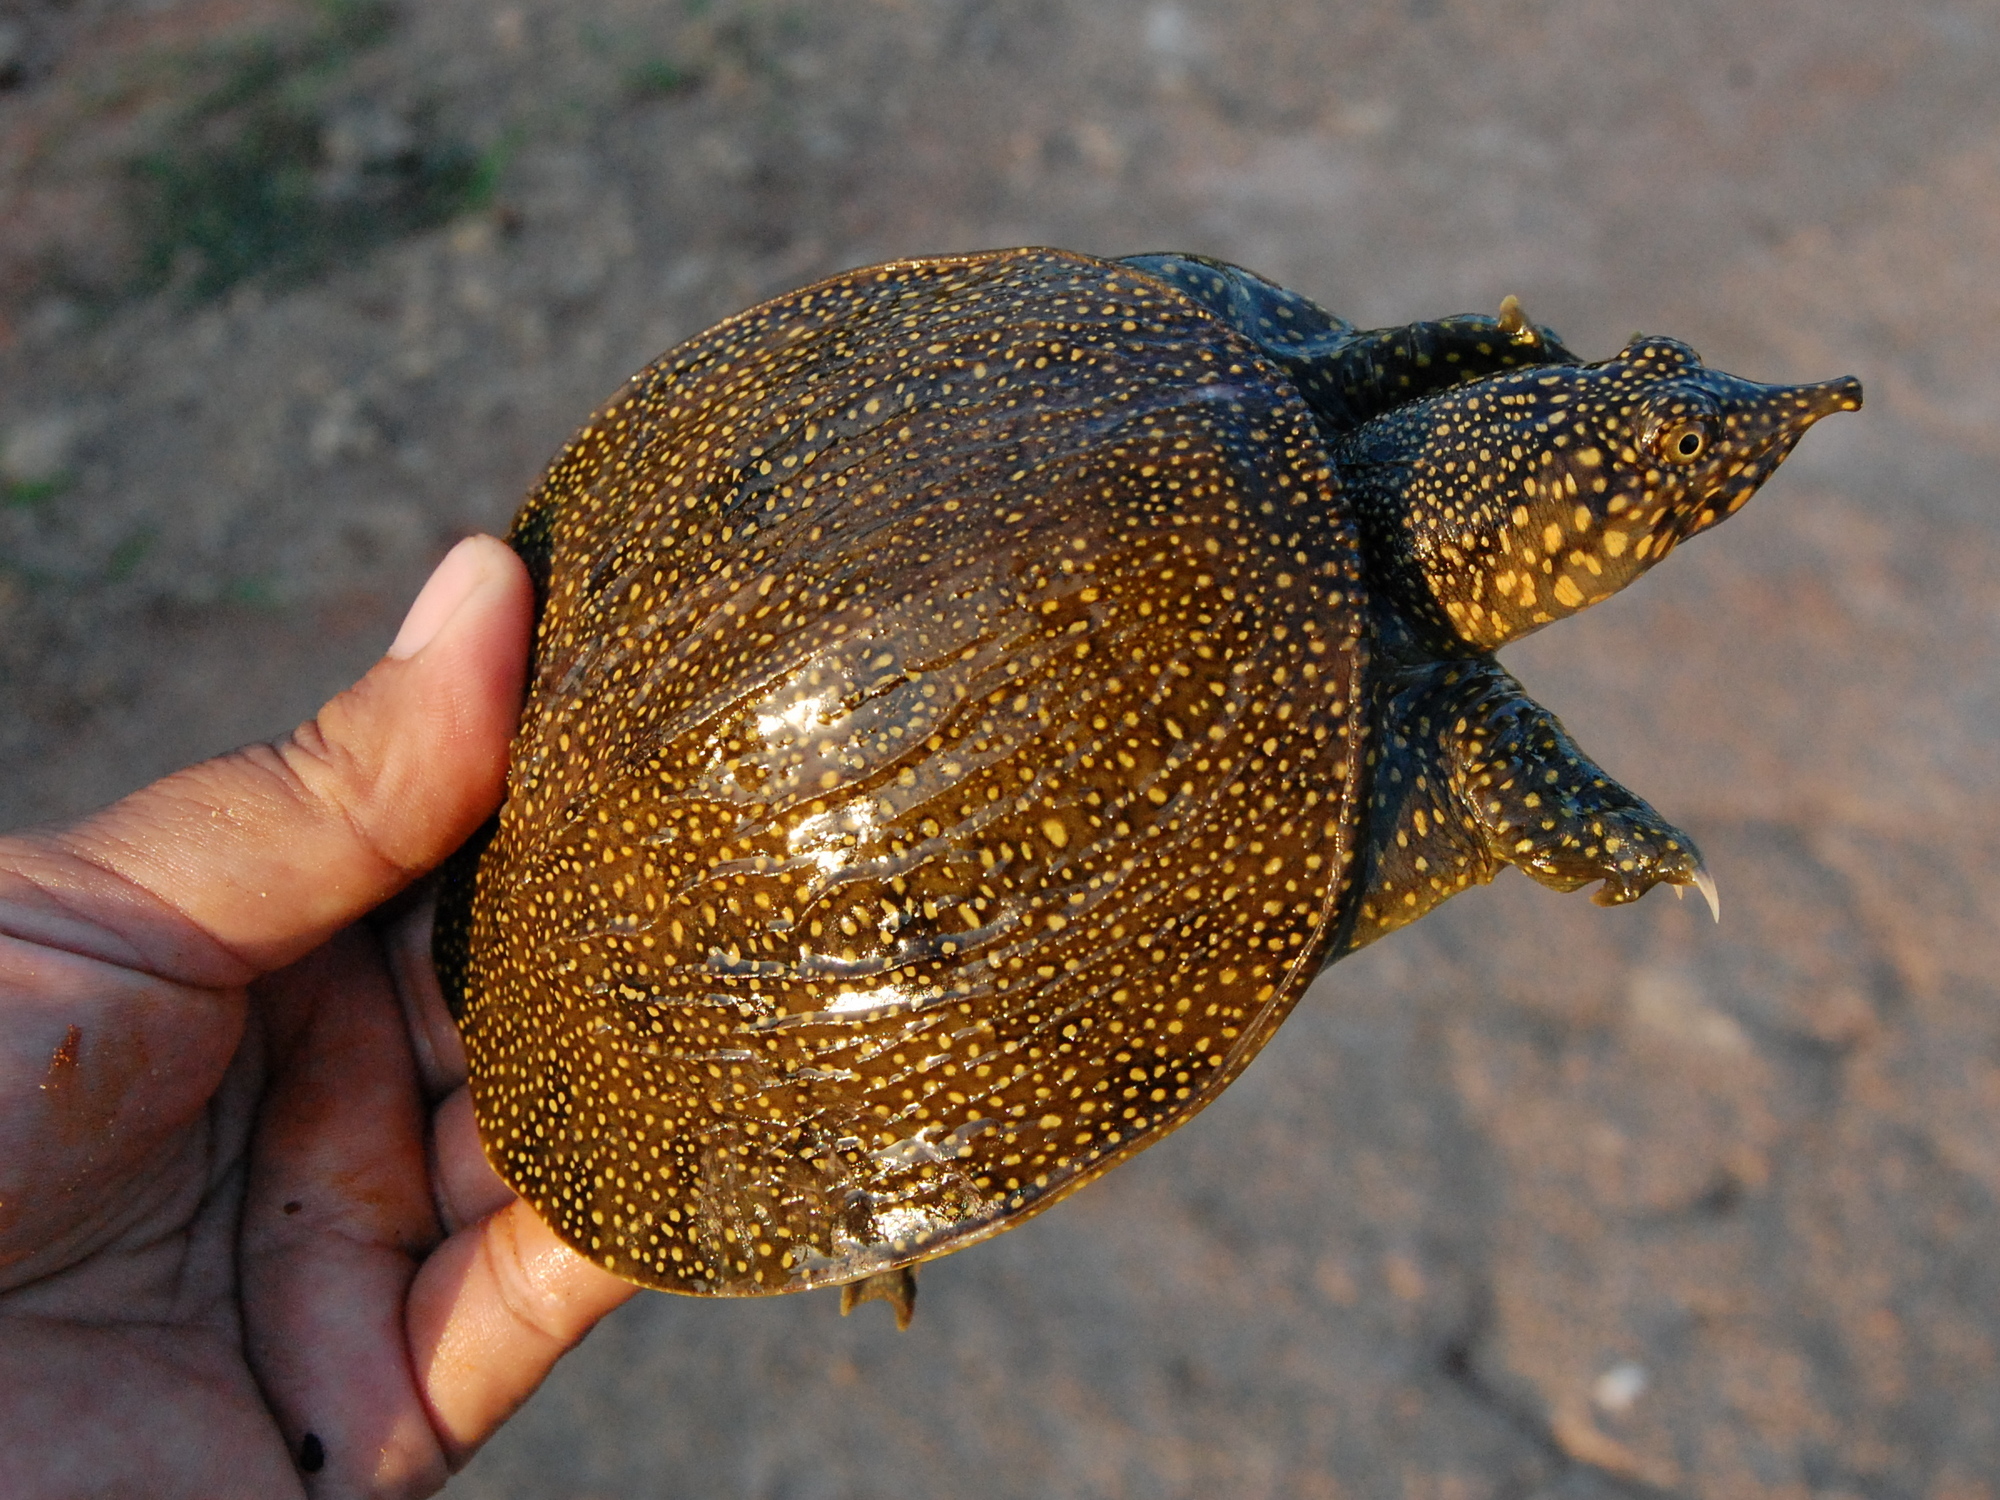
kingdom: Animalia
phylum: Chordata
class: Testudines
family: Trionychidae
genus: Amyda
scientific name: Amyda cartilaginea
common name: Asiatic softshell turtle
